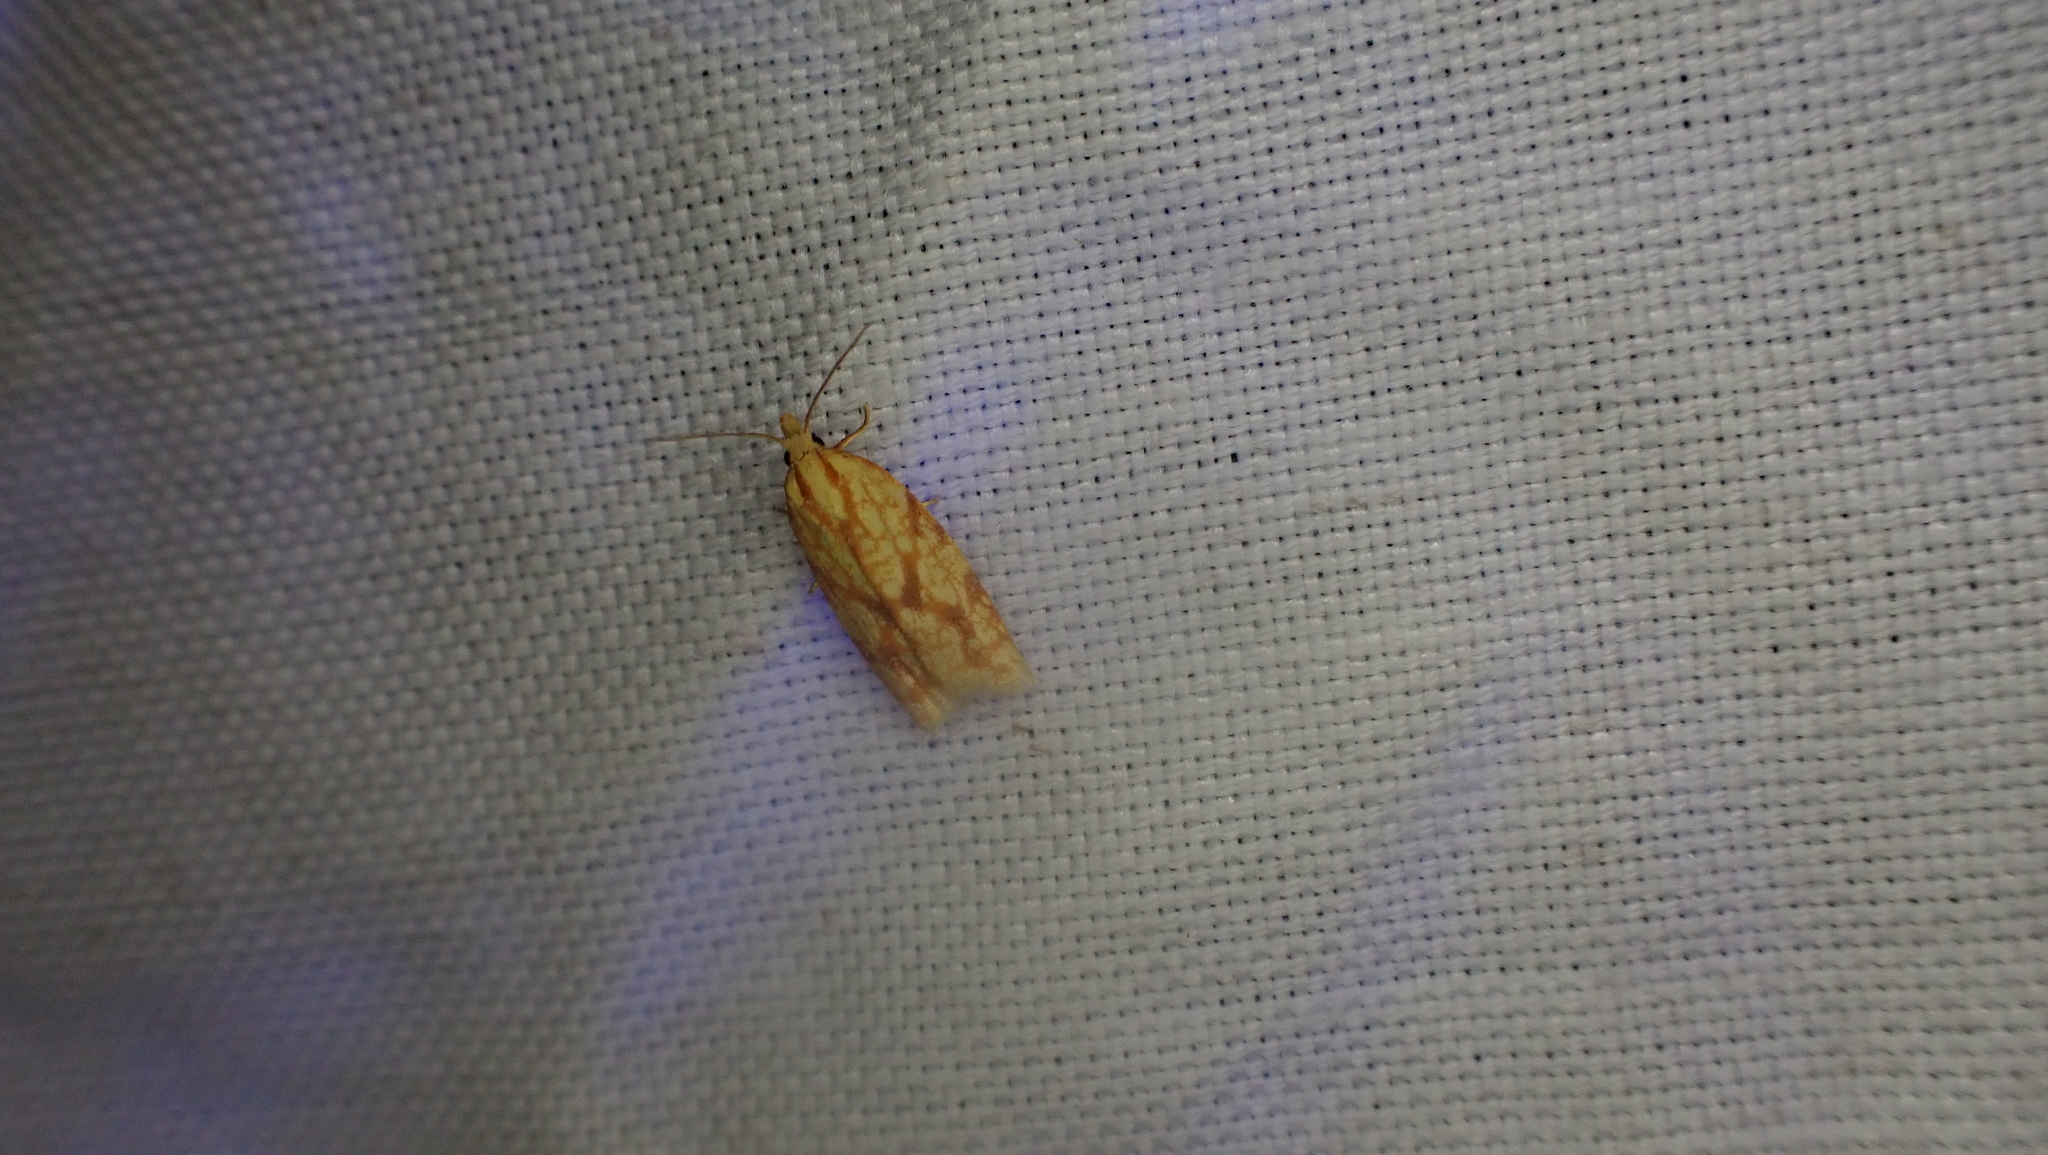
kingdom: Animalia
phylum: Arthropoda
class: Insecta
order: Lepidoptera
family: Tortricidae
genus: Sparganothis
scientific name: Sparganothis sulfureana
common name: Sparganothis fruitworm moth
